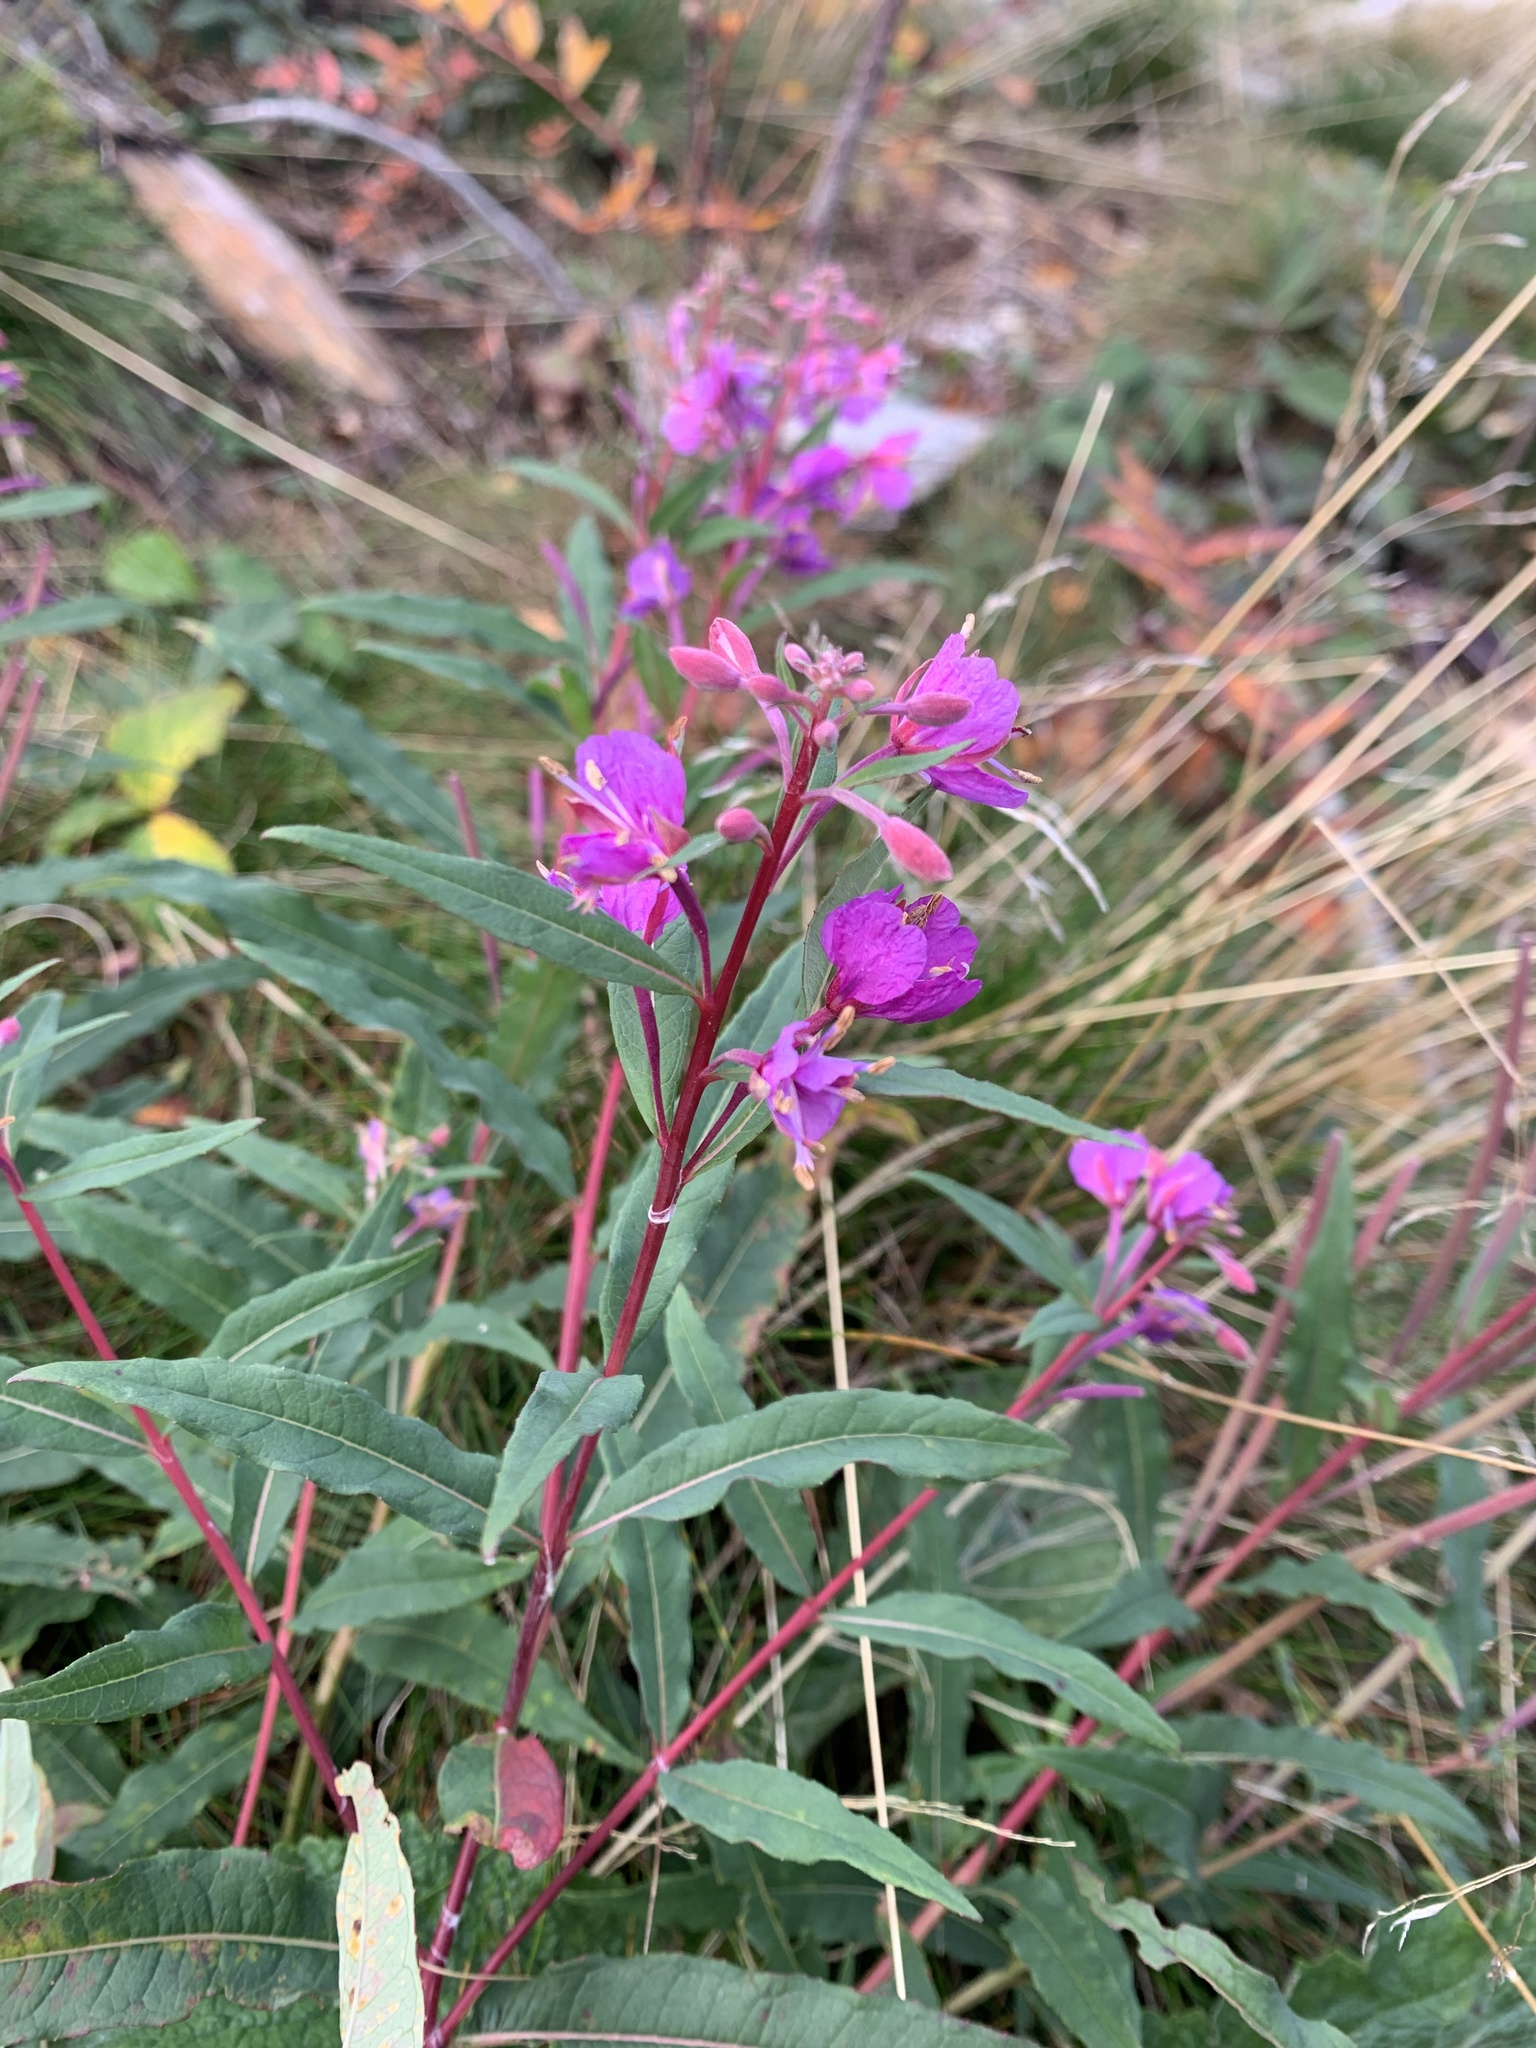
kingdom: Plantae
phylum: Tracheophyta
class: Magnoliopsida
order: Myrtales
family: Onagraceae
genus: Chamaenerion
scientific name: Chamaenerion angustifolium
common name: Fireweed
